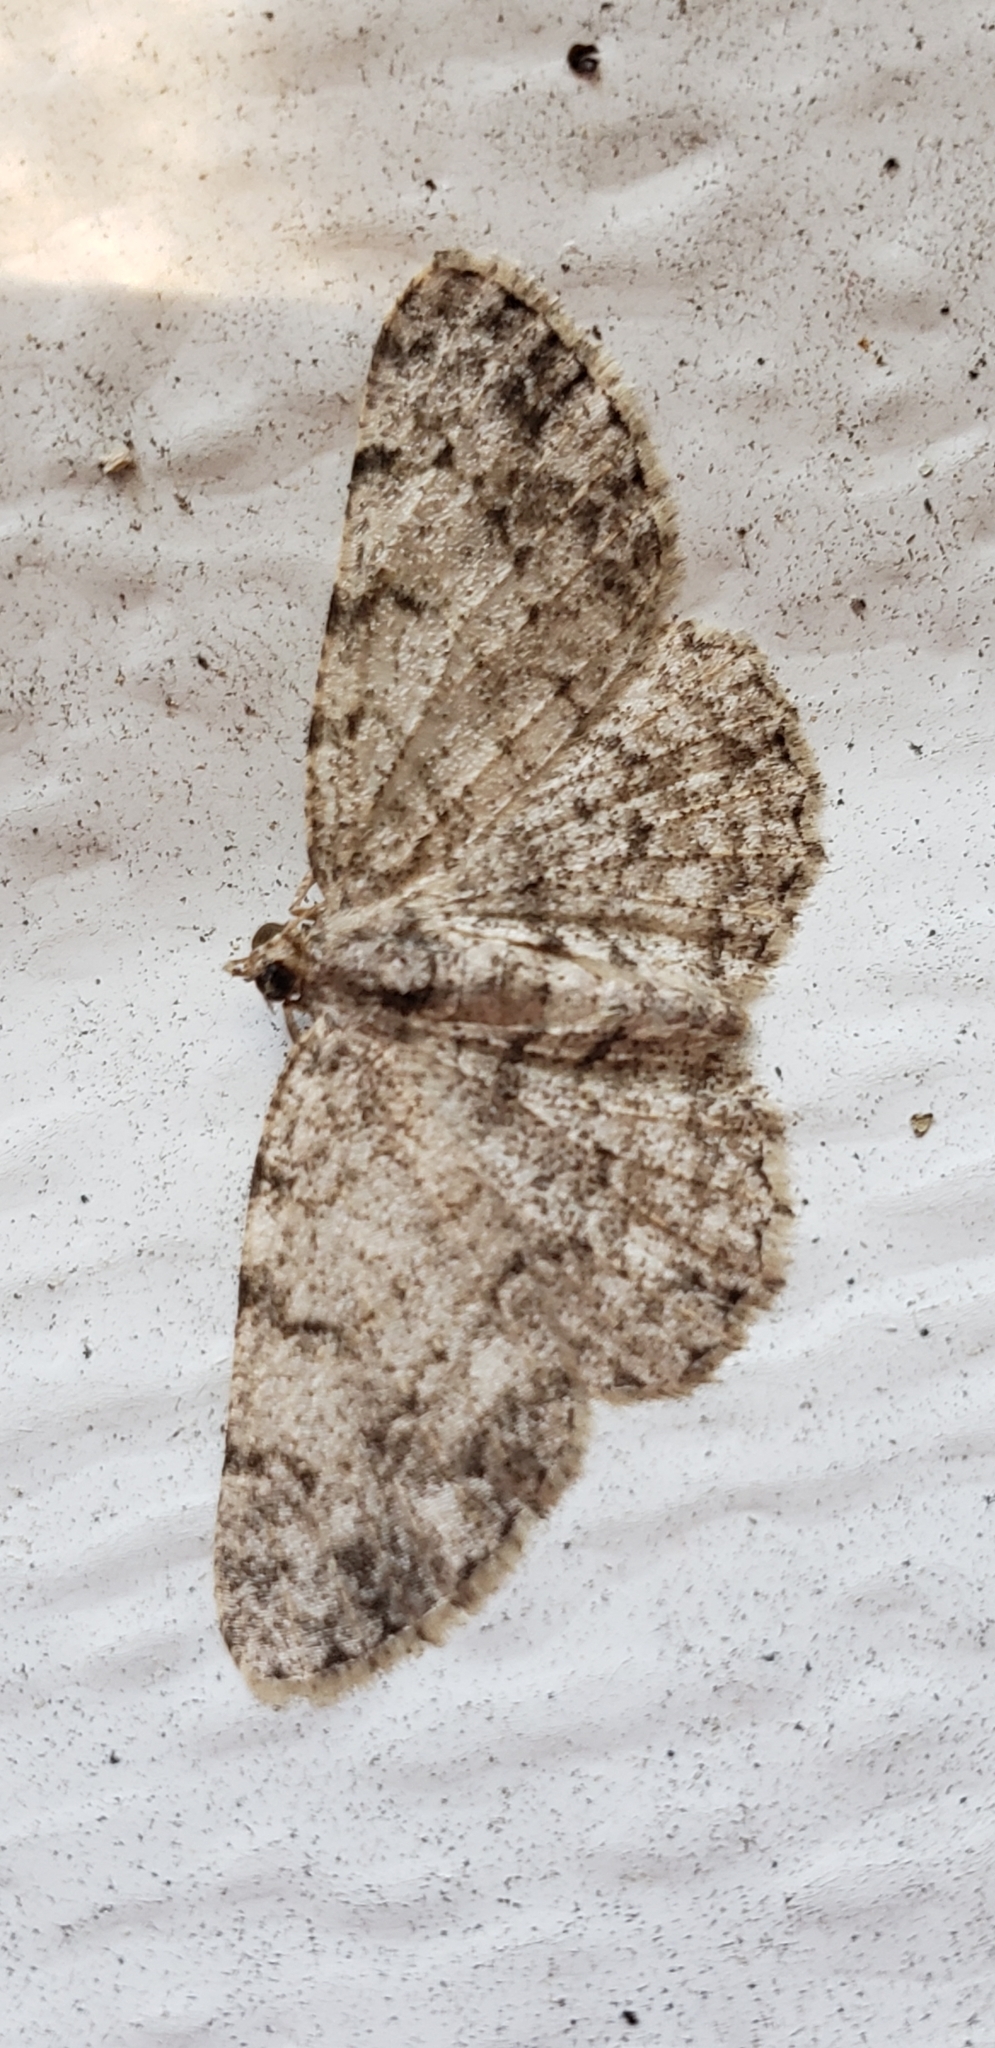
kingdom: Animalia
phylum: Arthropoda
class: Insecta
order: Lepidoptera
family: Geometridae
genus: Protoboarmia
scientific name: Protoboarmia porcelaria
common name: Porcelain gray
